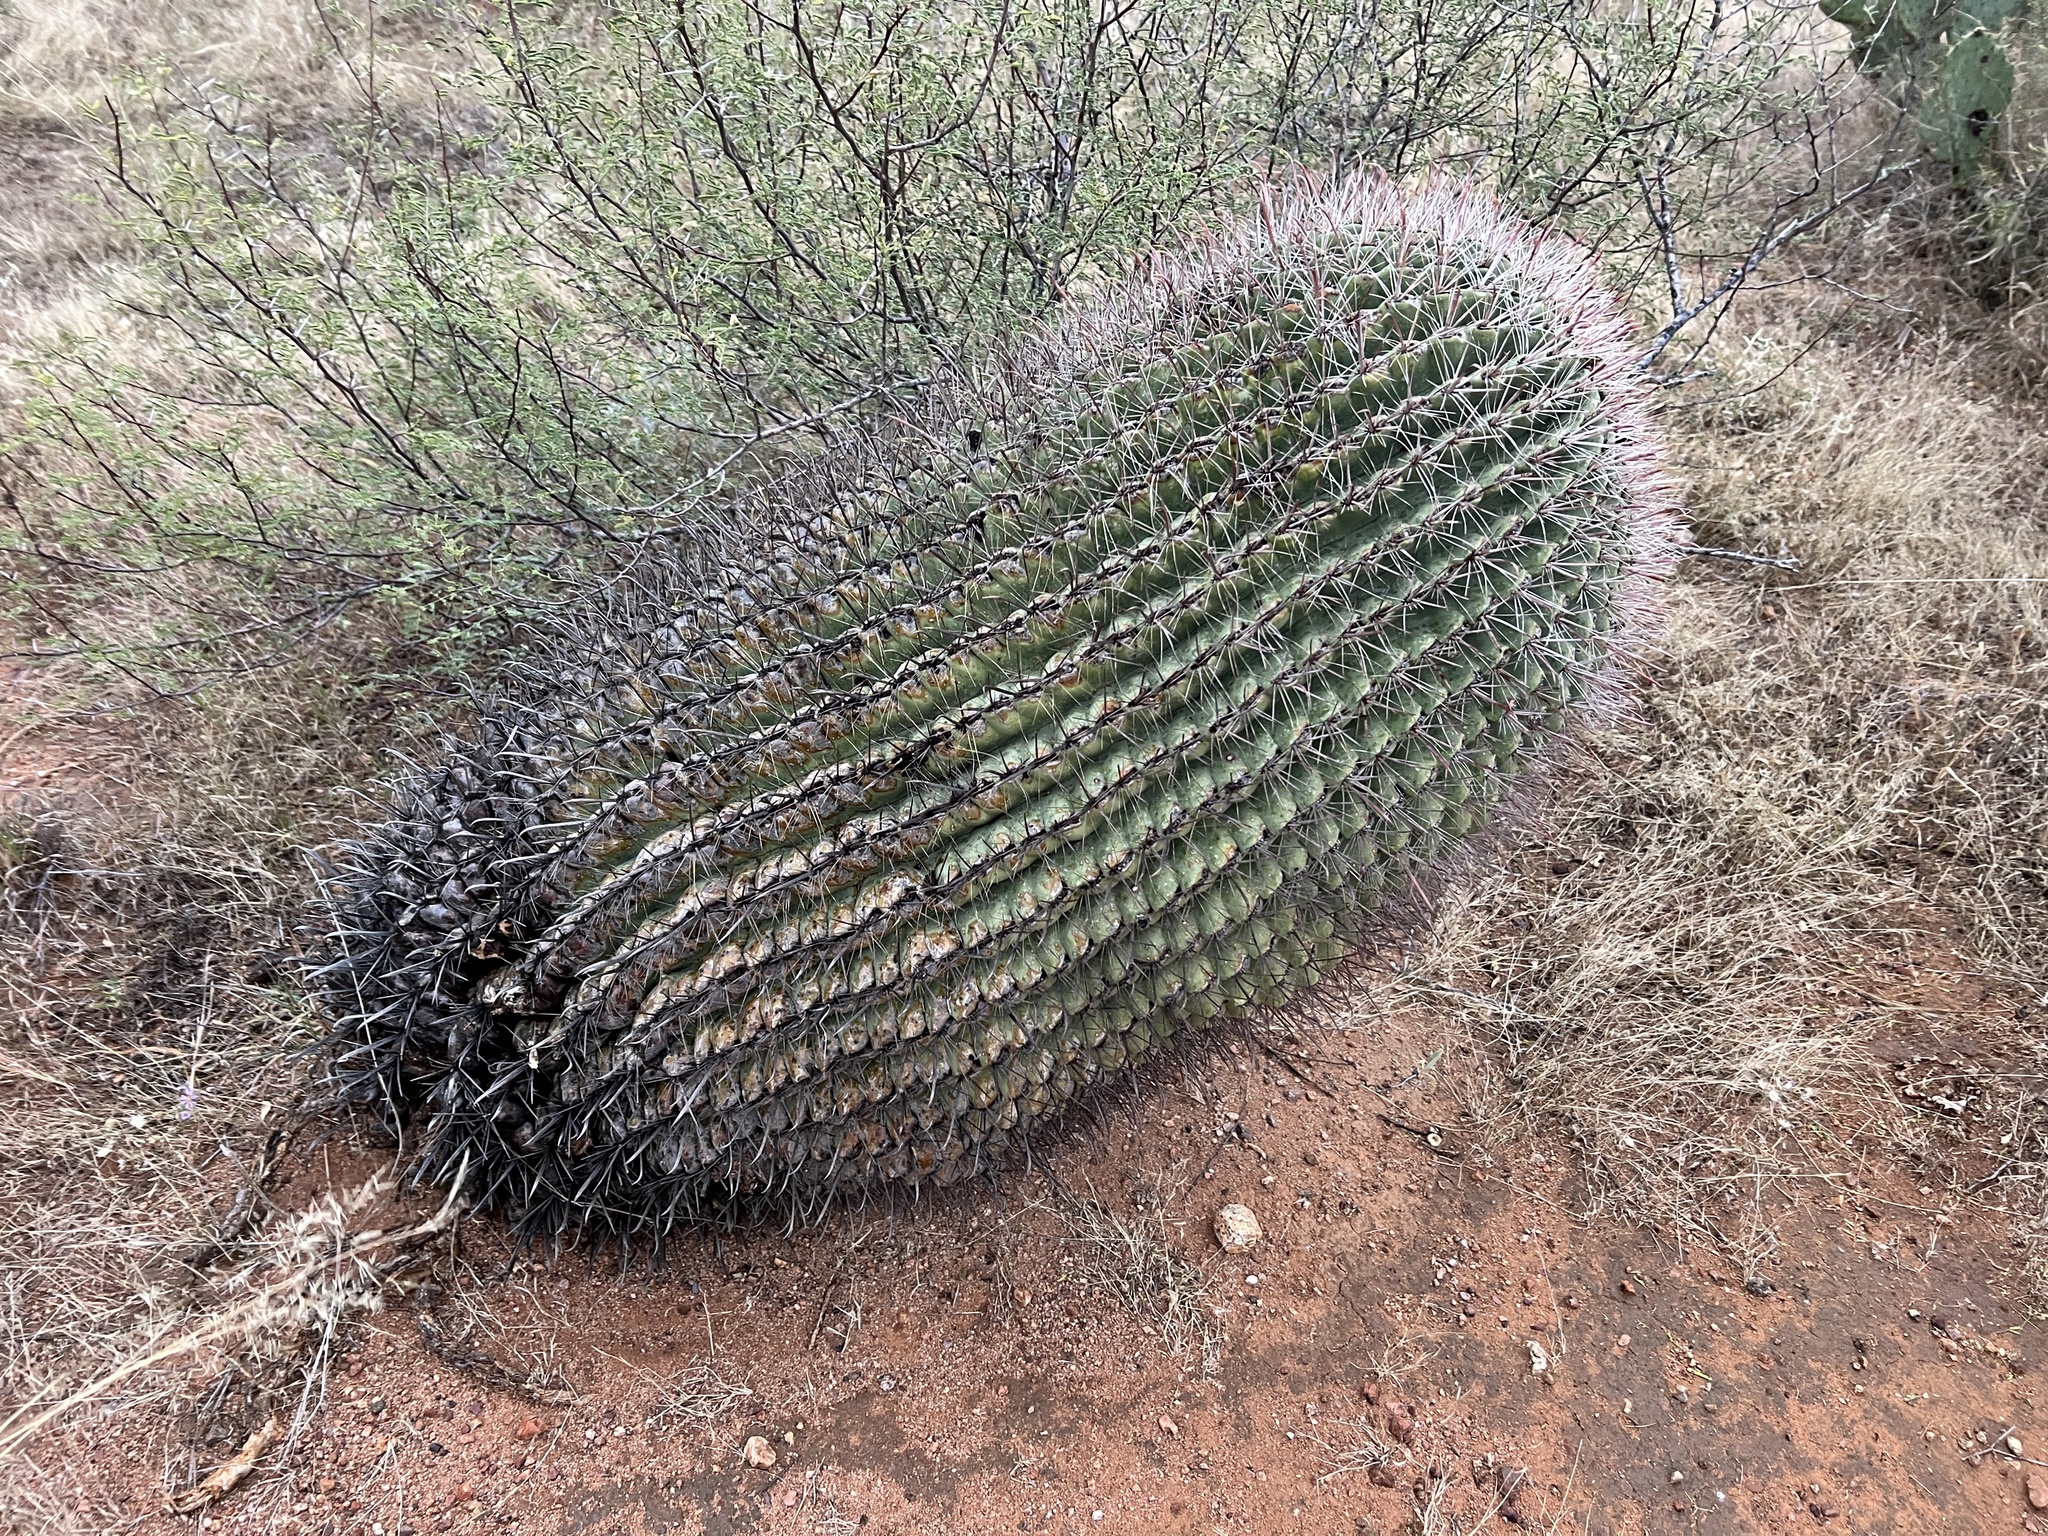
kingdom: Plantae
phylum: Tracheophyta
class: Magnoliopsida
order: Caryophyllales
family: Cactaceae
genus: Ferocactus
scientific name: Ferocactus wislizeni
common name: Candy barrel cactus
